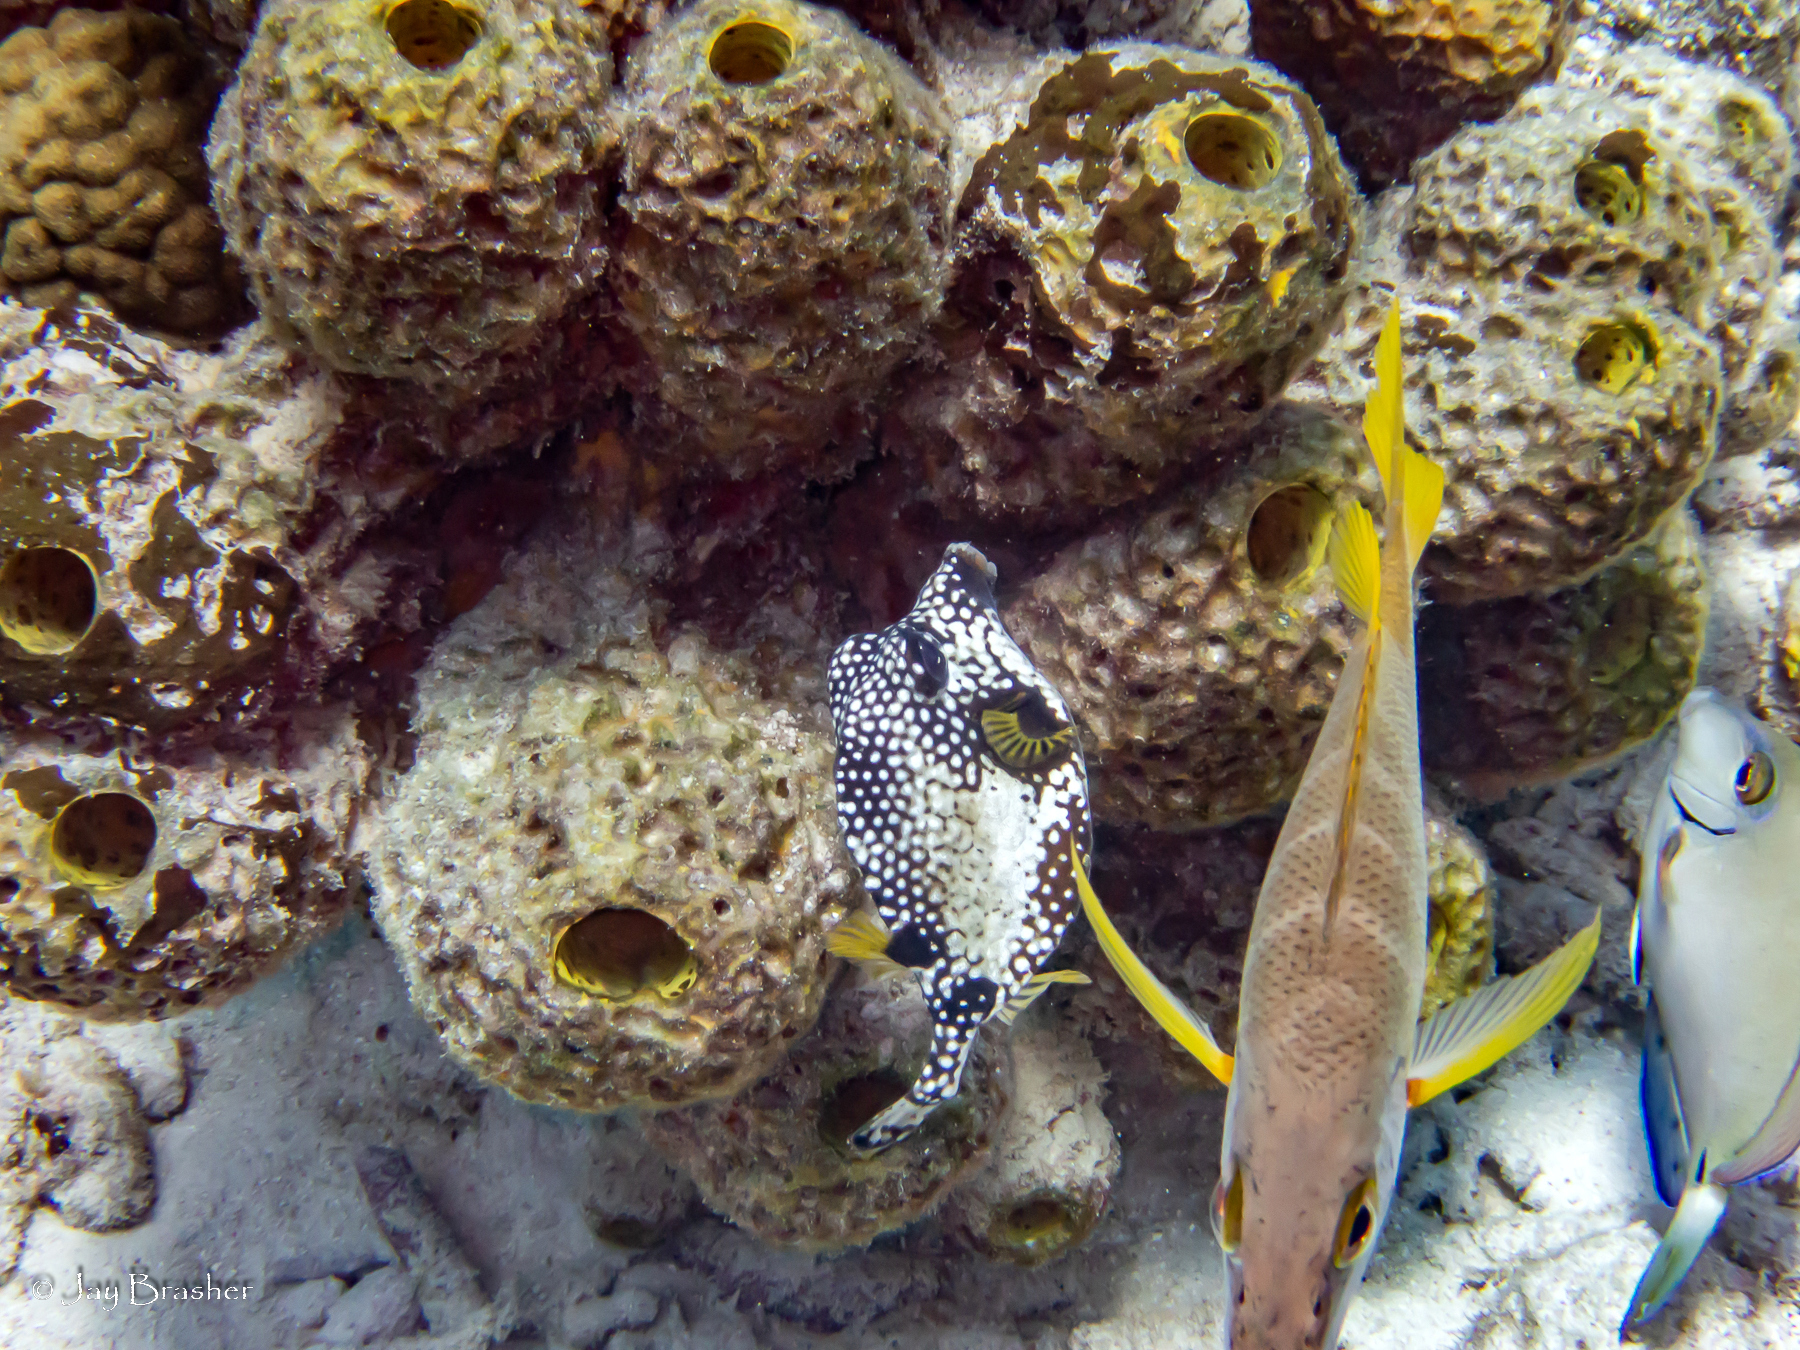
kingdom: Animalia
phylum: Chordata
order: Tetraodontiformes
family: Ostraciidae
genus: Lactophrys
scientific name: Lactophrys triqueter
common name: Smooth trunkfish
